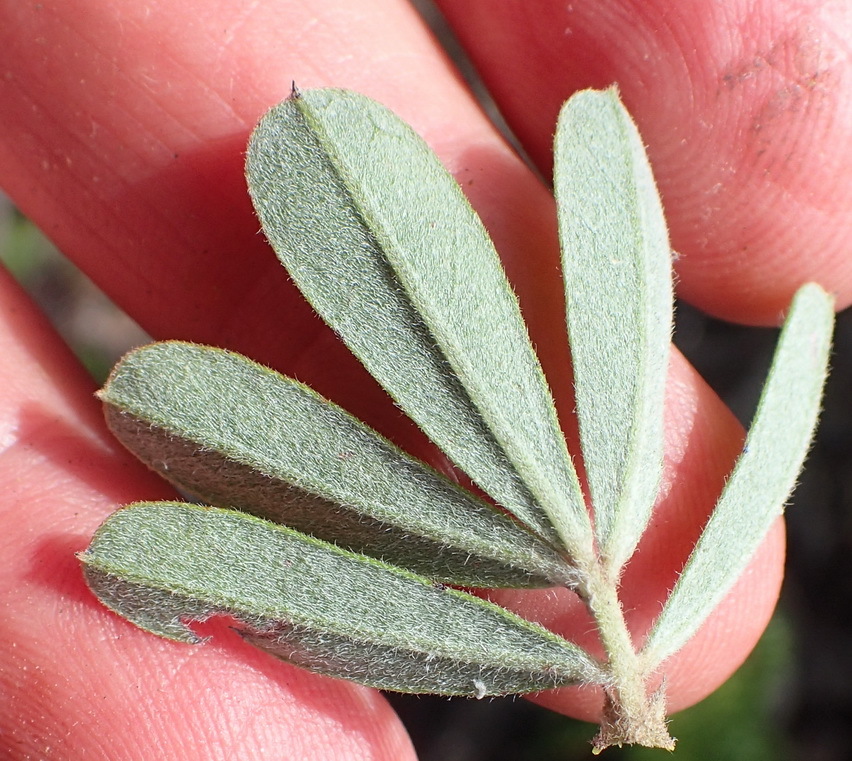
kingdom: Plantae
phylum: Tracheophyta
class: Magnoliopsida
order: Fabales
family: Fabaceae
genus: Indigofera
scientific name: Indigofera hispida
